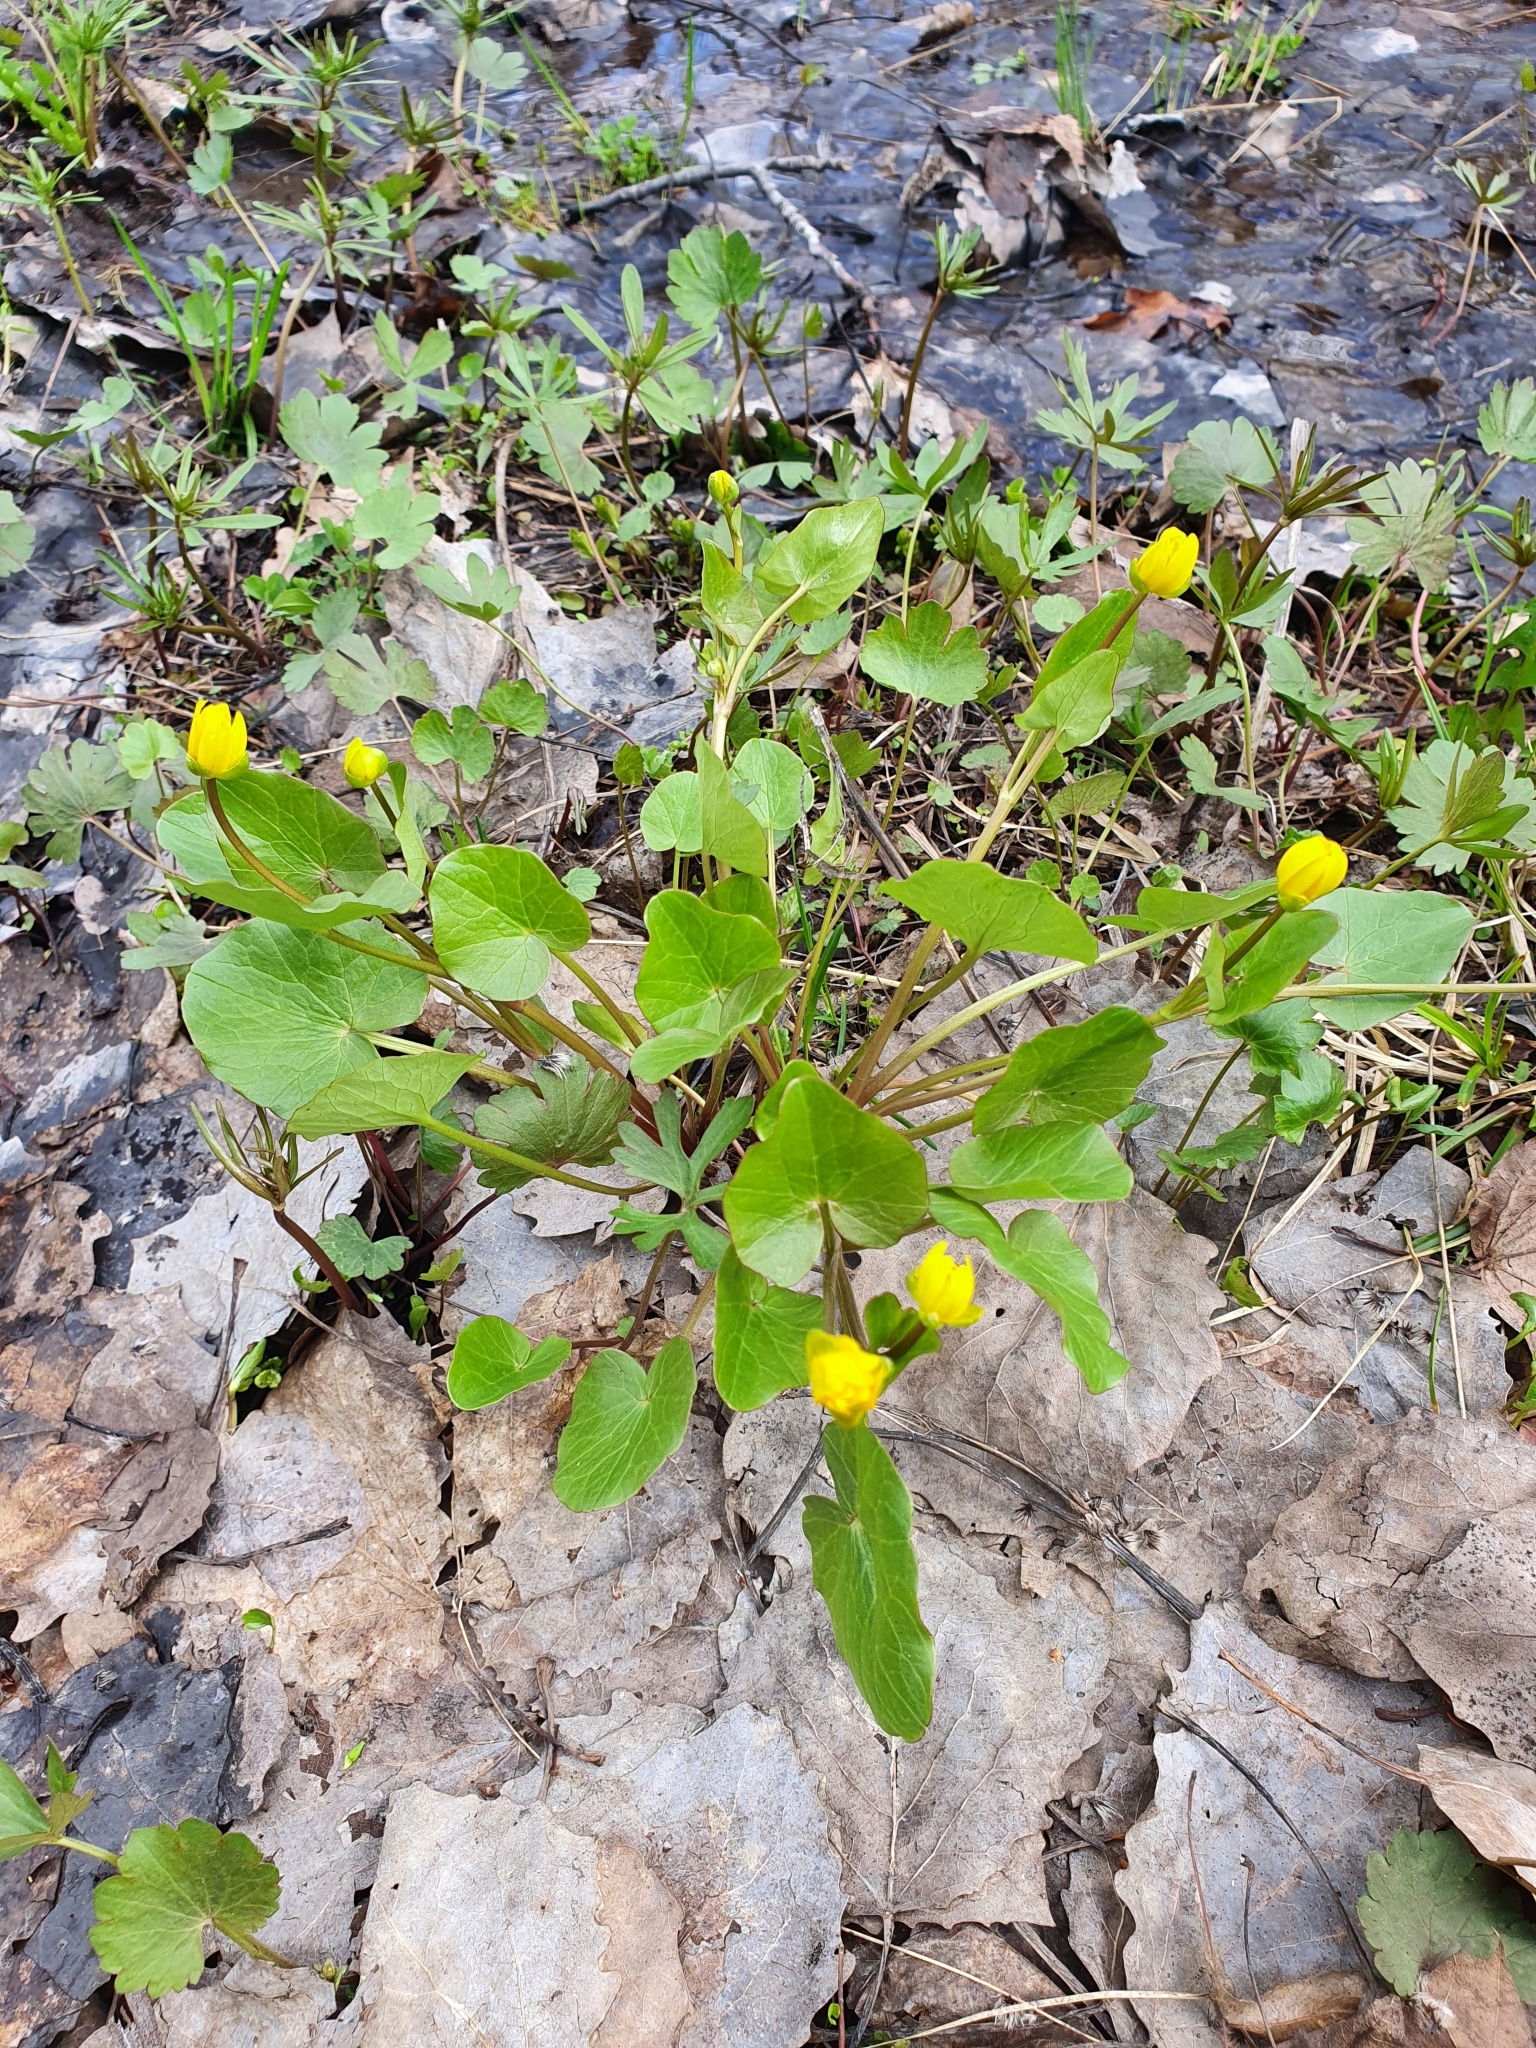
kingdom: Plantae
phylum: Tracheophyta
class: Magnoliopsida
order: Ranunculales
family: Ranunculaceae
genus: Ficaria
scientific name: Ficaria verna
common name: Lesser celandine
